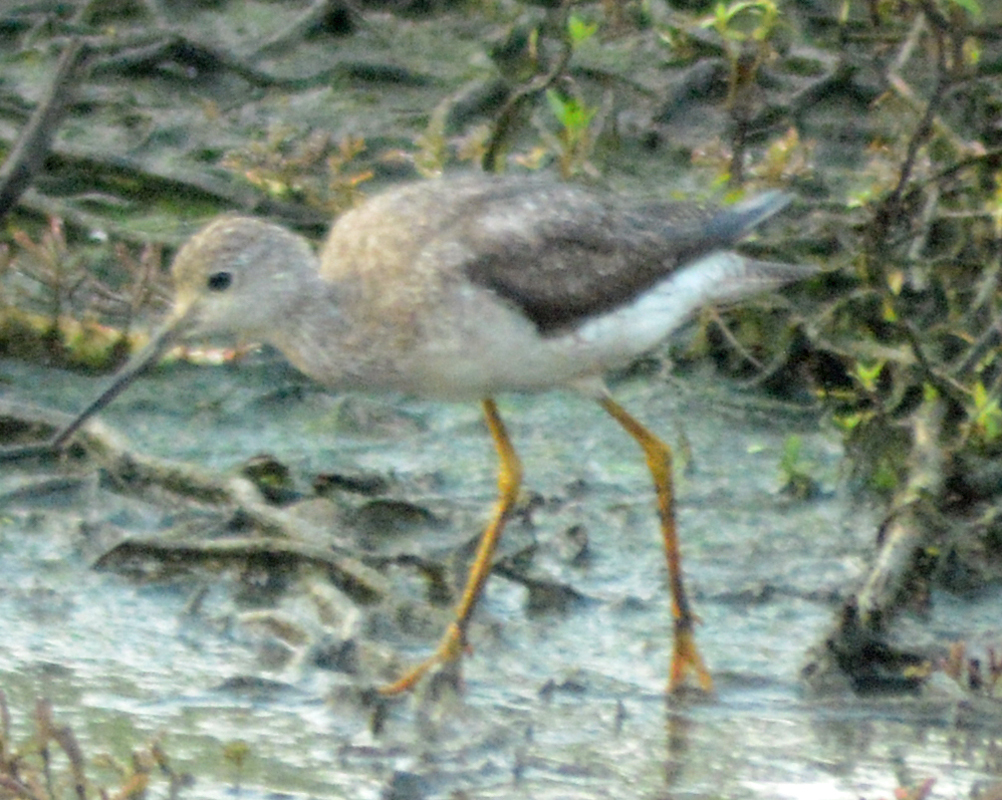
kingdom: Animalia
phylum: Chordata
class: Aves
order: Charadriiformes
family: Scolopacidae
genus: Tringa
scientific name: Tringa melanoleuca
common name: Greater yellowlegs
